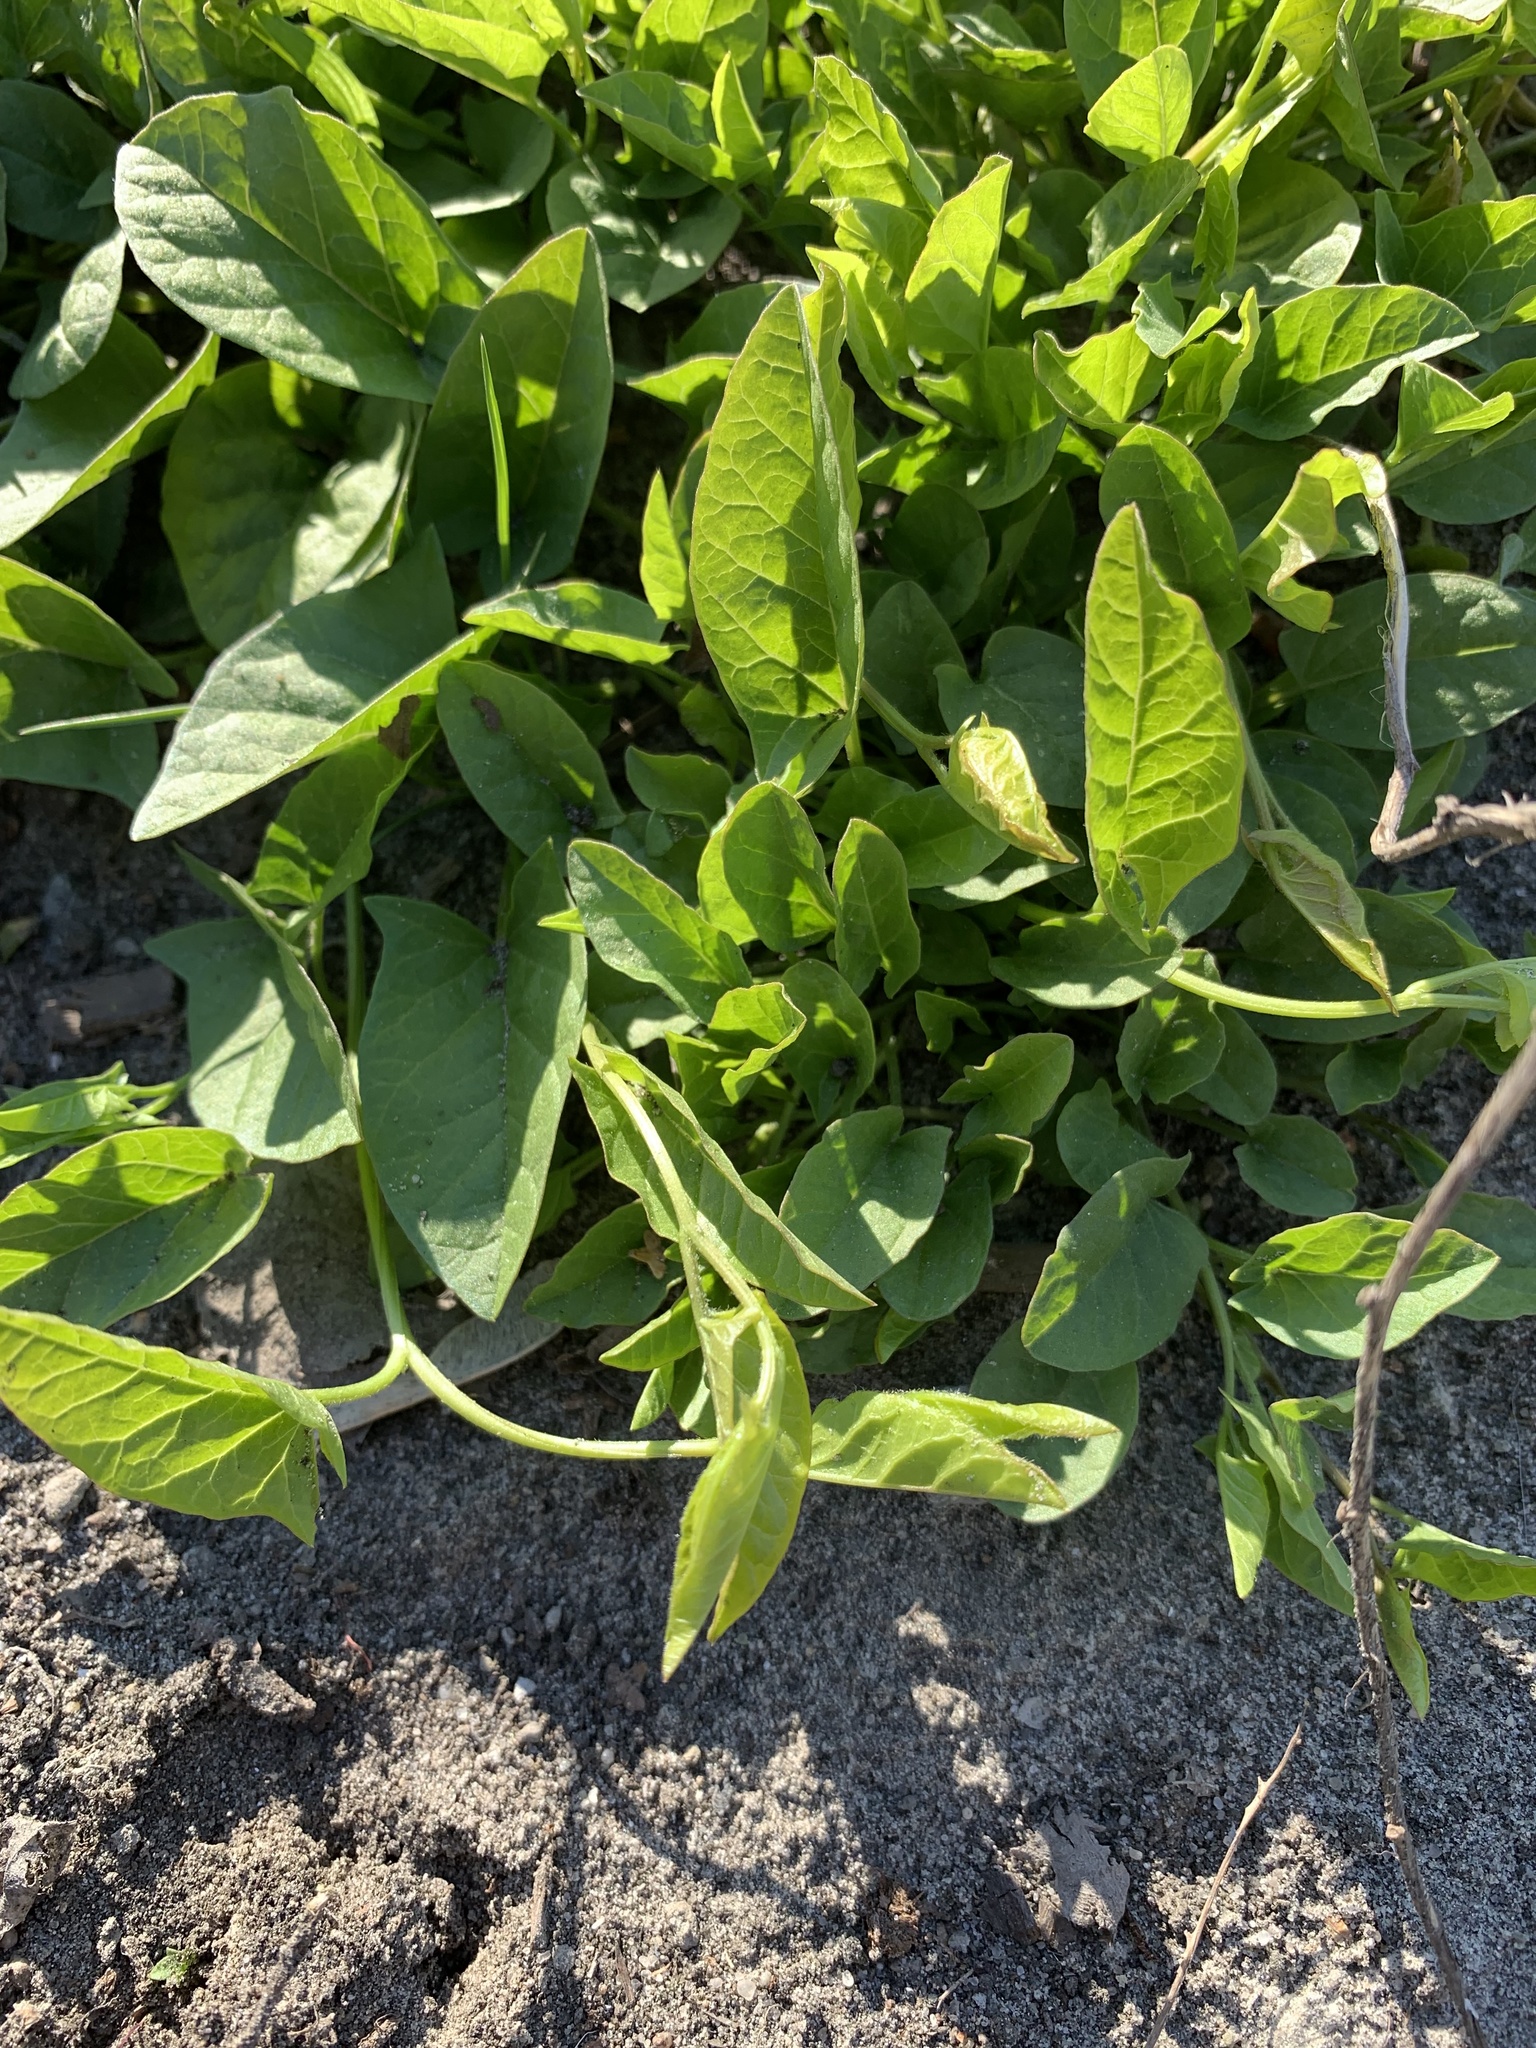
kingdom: Plantae
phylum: Tracheophyta
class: Magnoliopsida
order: Solanales
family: Convolvulaceae
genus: Convolvulus
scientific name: Convolvulus arvensis
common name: Field bindweed
